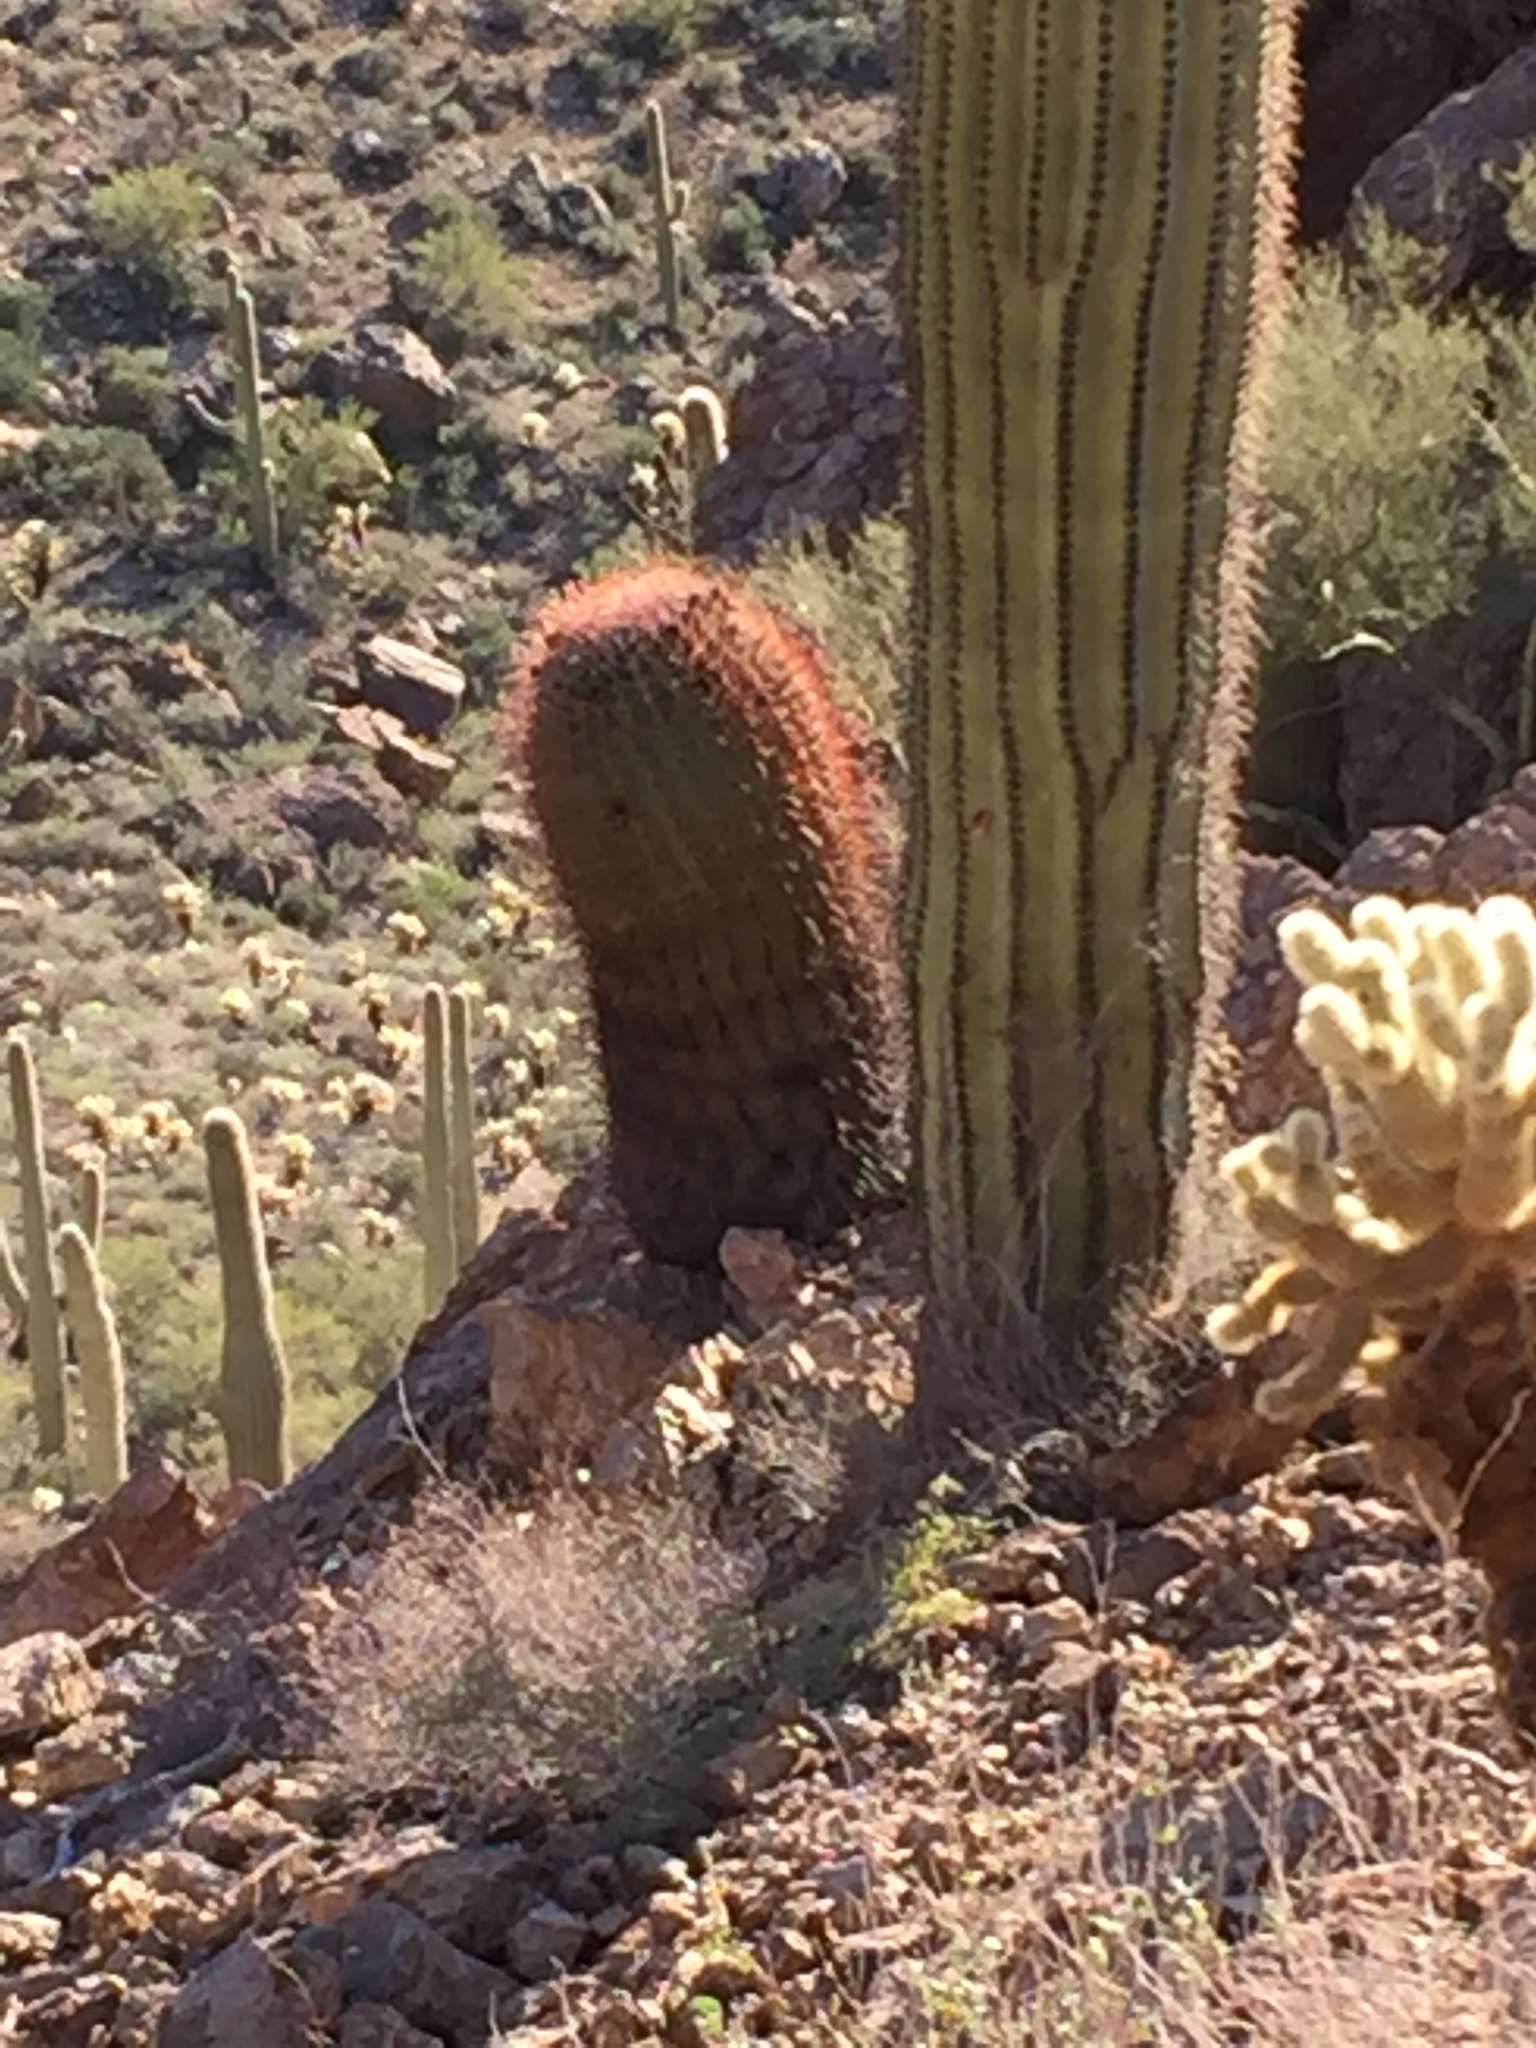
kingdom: Plantae
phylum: Tracheophyta
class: Magnoliopsida
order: Caryophyllales
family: Cactaceae
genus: Ferocactus
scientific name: Ferocactus cylindraceus
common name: California barrel cactus
